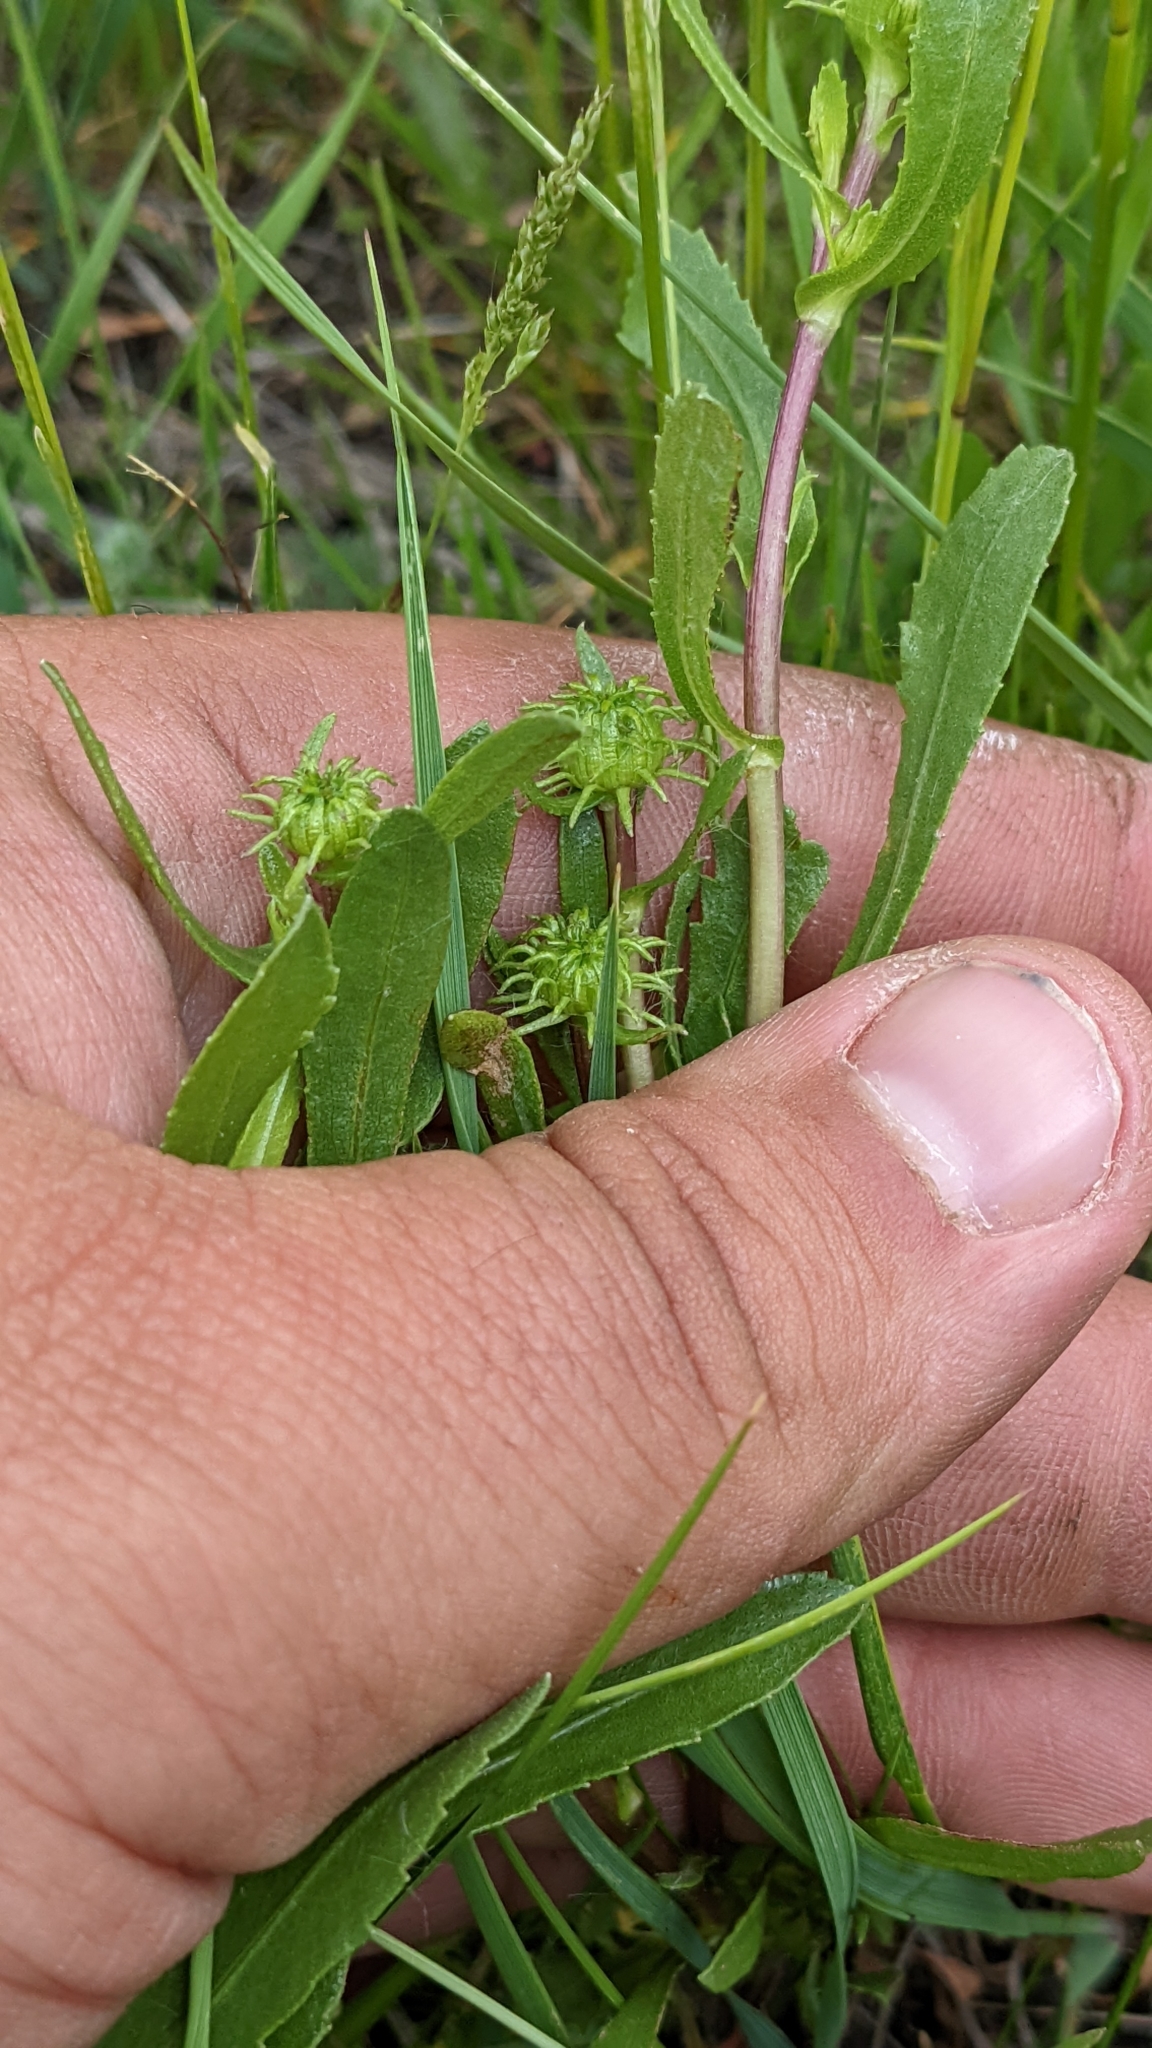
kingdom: Plantae
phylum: Tracheophyta
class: Magnoliopsida
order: Asterales
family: Asteraceae
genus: Grindelia
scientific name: Grindelia squarrosa
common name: Curly-cup gumweed
